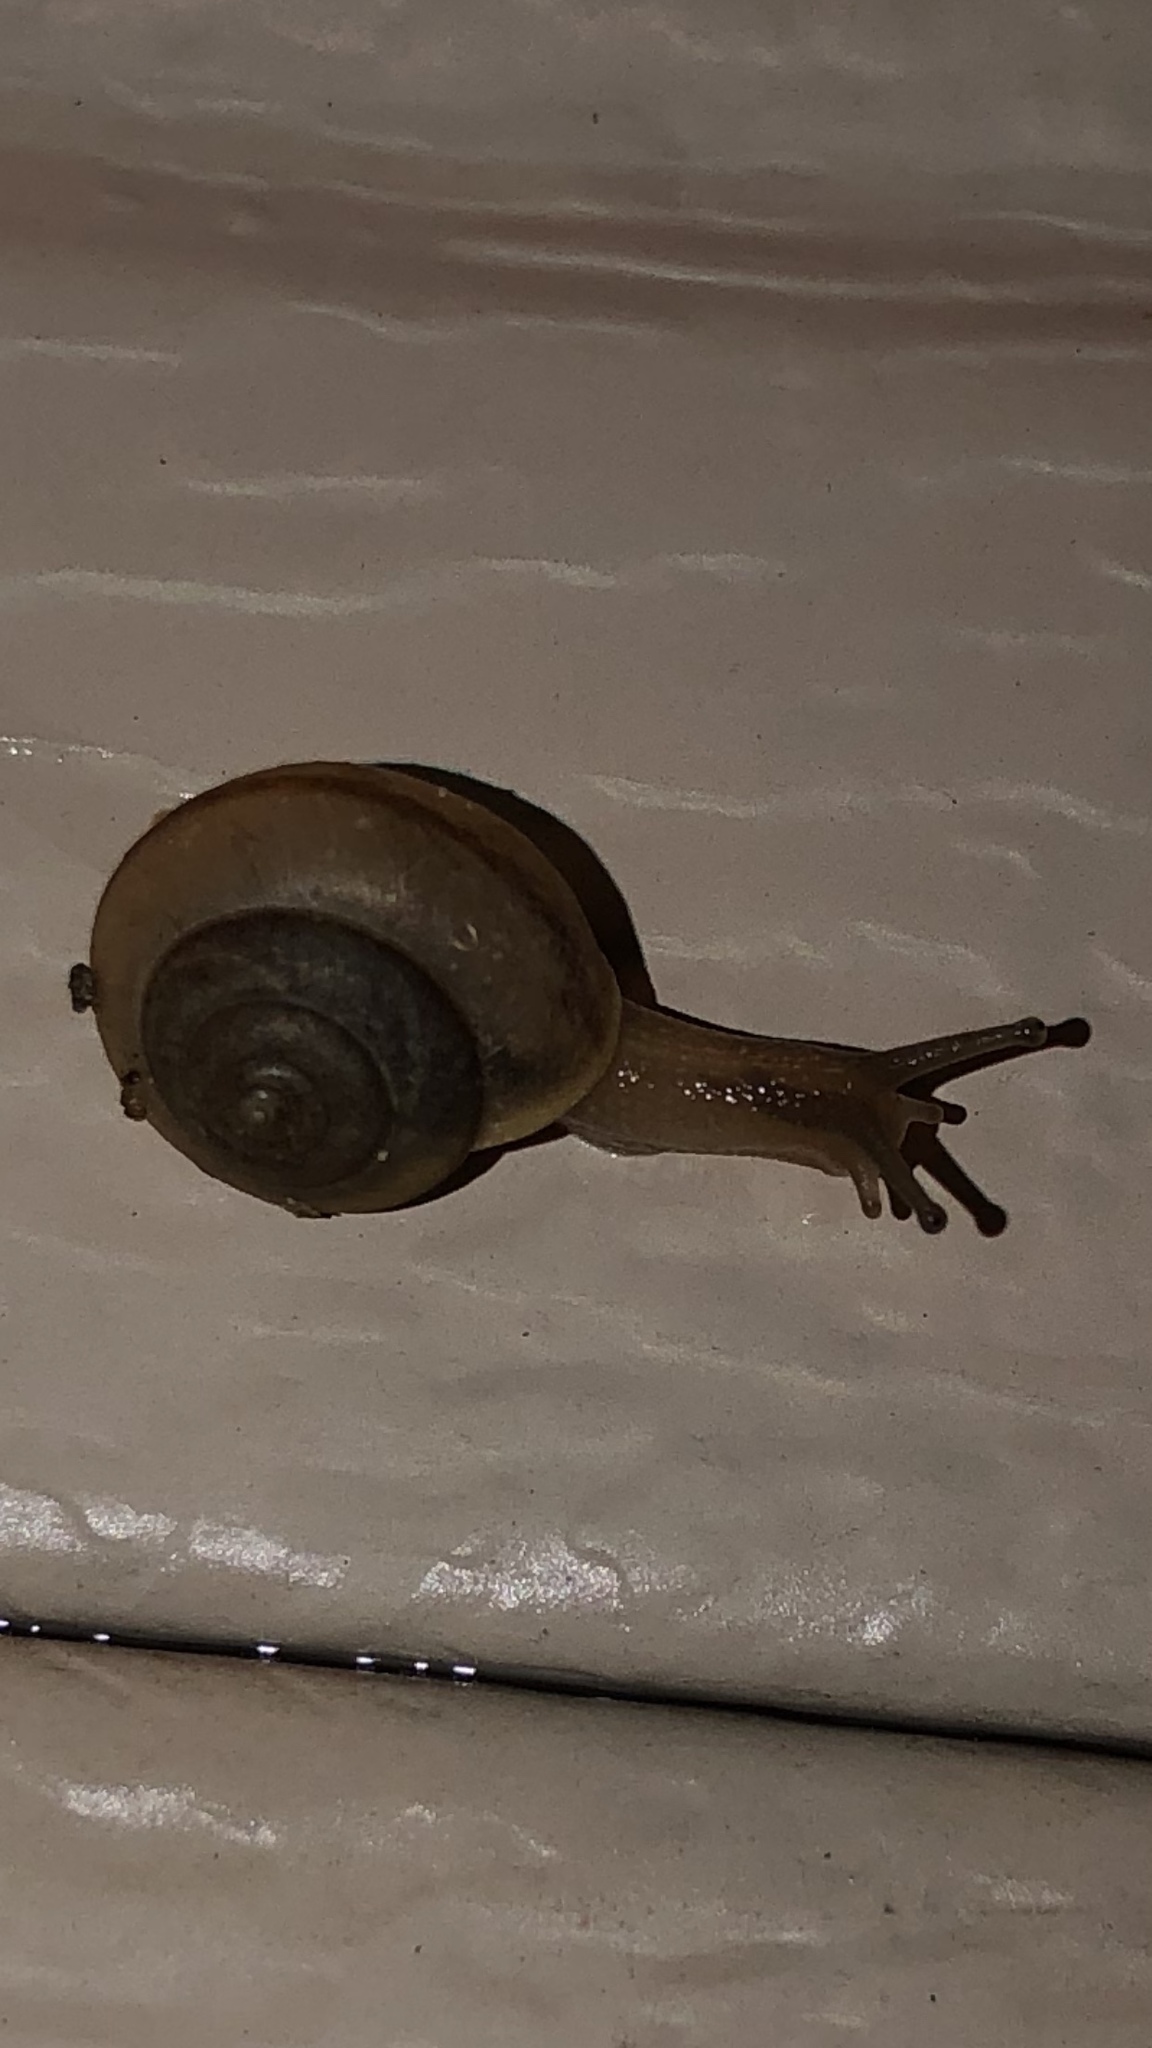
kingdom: Animalia
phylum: Mollusca
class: Gastropoda
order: Stylommatophora
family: Camaenidae
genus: Bradybaena
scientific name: Bradybaena similaris
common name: Asian trampsnail
